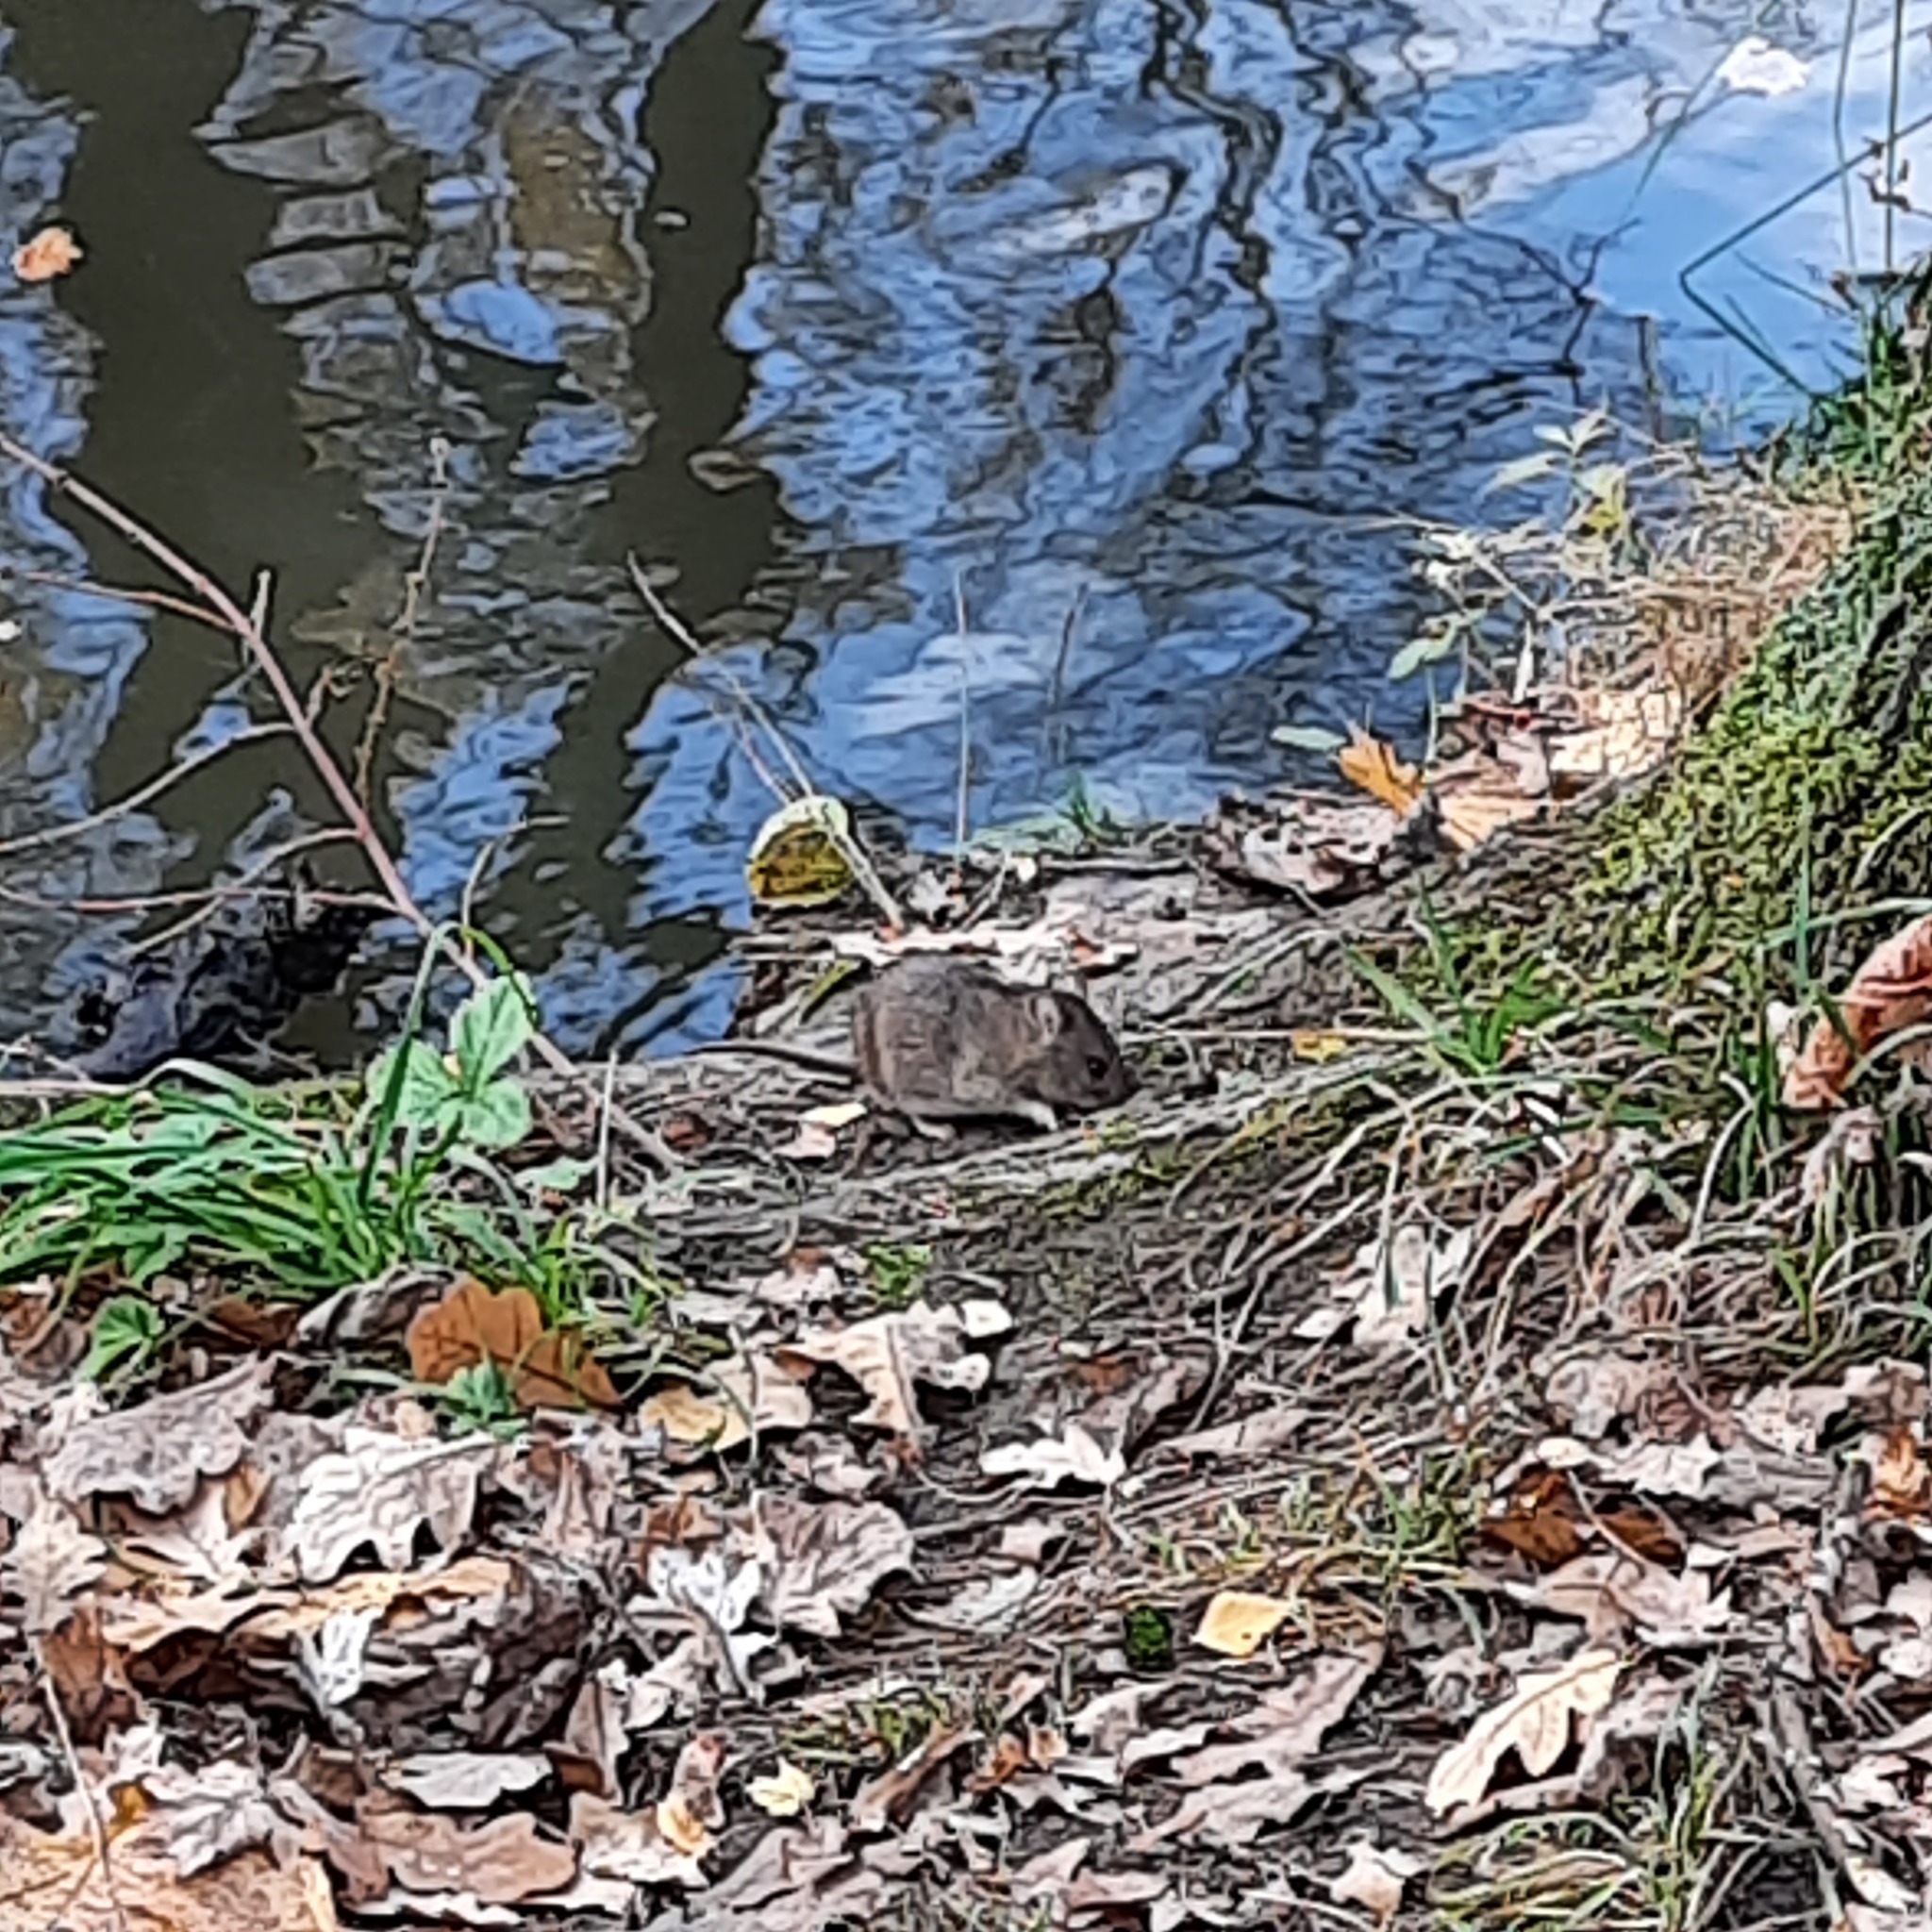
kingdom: Animalia
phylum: Chordata
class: Mammalia
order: Rodentia
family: Muridae
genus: Apodemus
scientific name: Apodemus agrarius
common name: Striped field mouse
